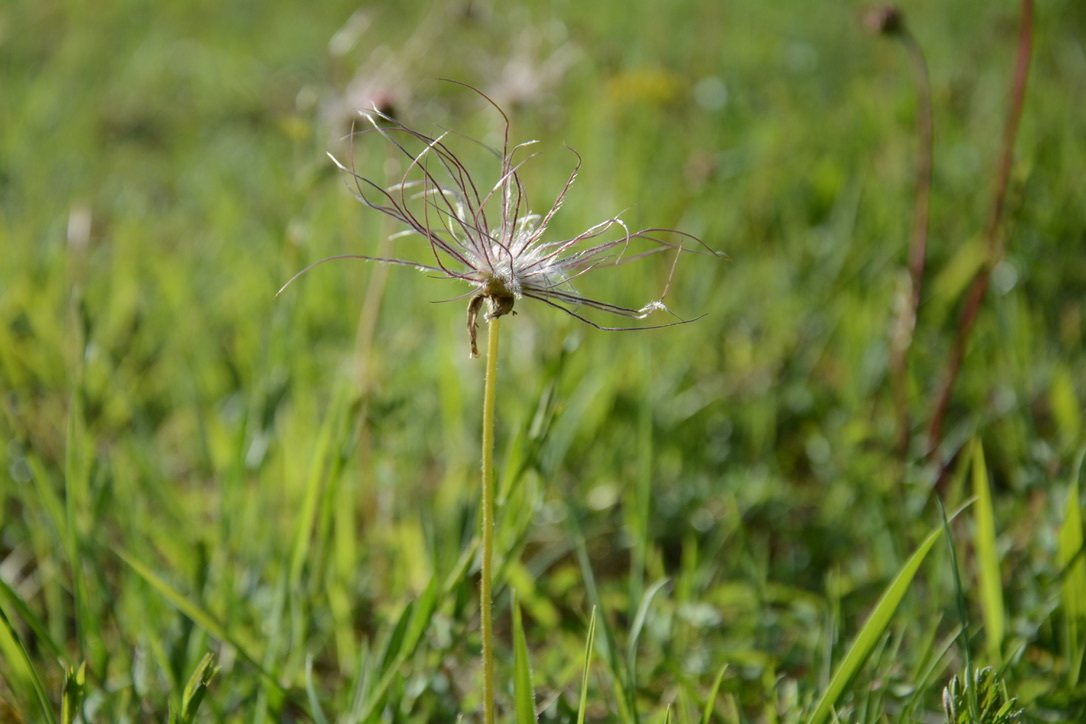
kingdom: Plantae
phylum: Tracheophyta
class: Magnoliopsida
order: Ranunculales
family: Ranunculaceae
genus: Pulsatilla
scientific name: Pulsatilla vulgaris
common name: Pasqueflower
